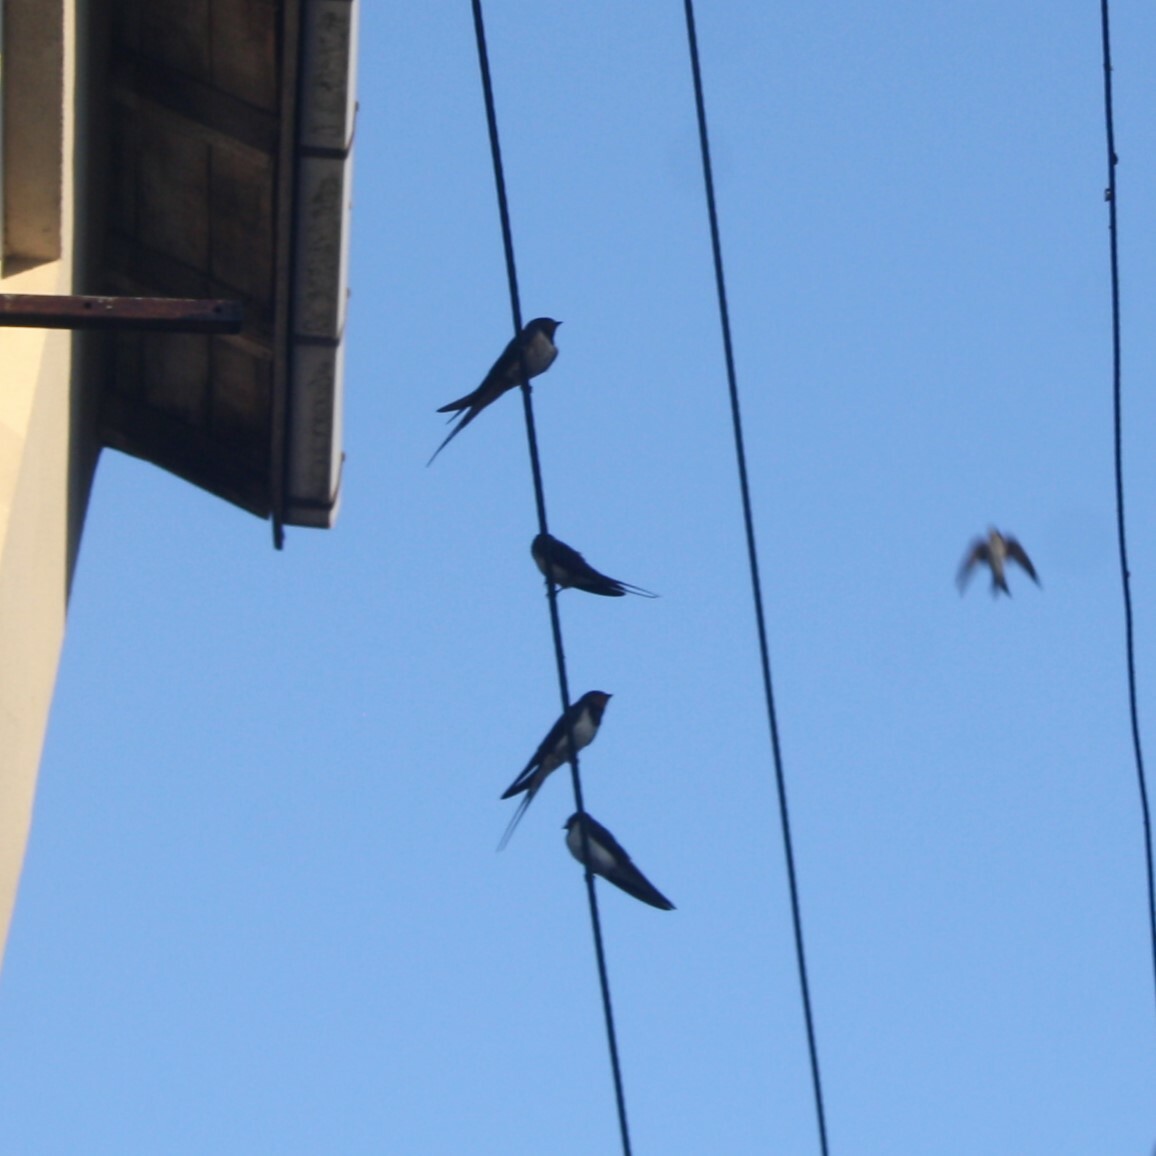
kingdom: Animalia
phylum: Chordata
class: Aves
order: Passeriformes
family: Hirundinidae
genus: Hirundo
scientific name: Hirundo rustica
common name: Barn swallow
